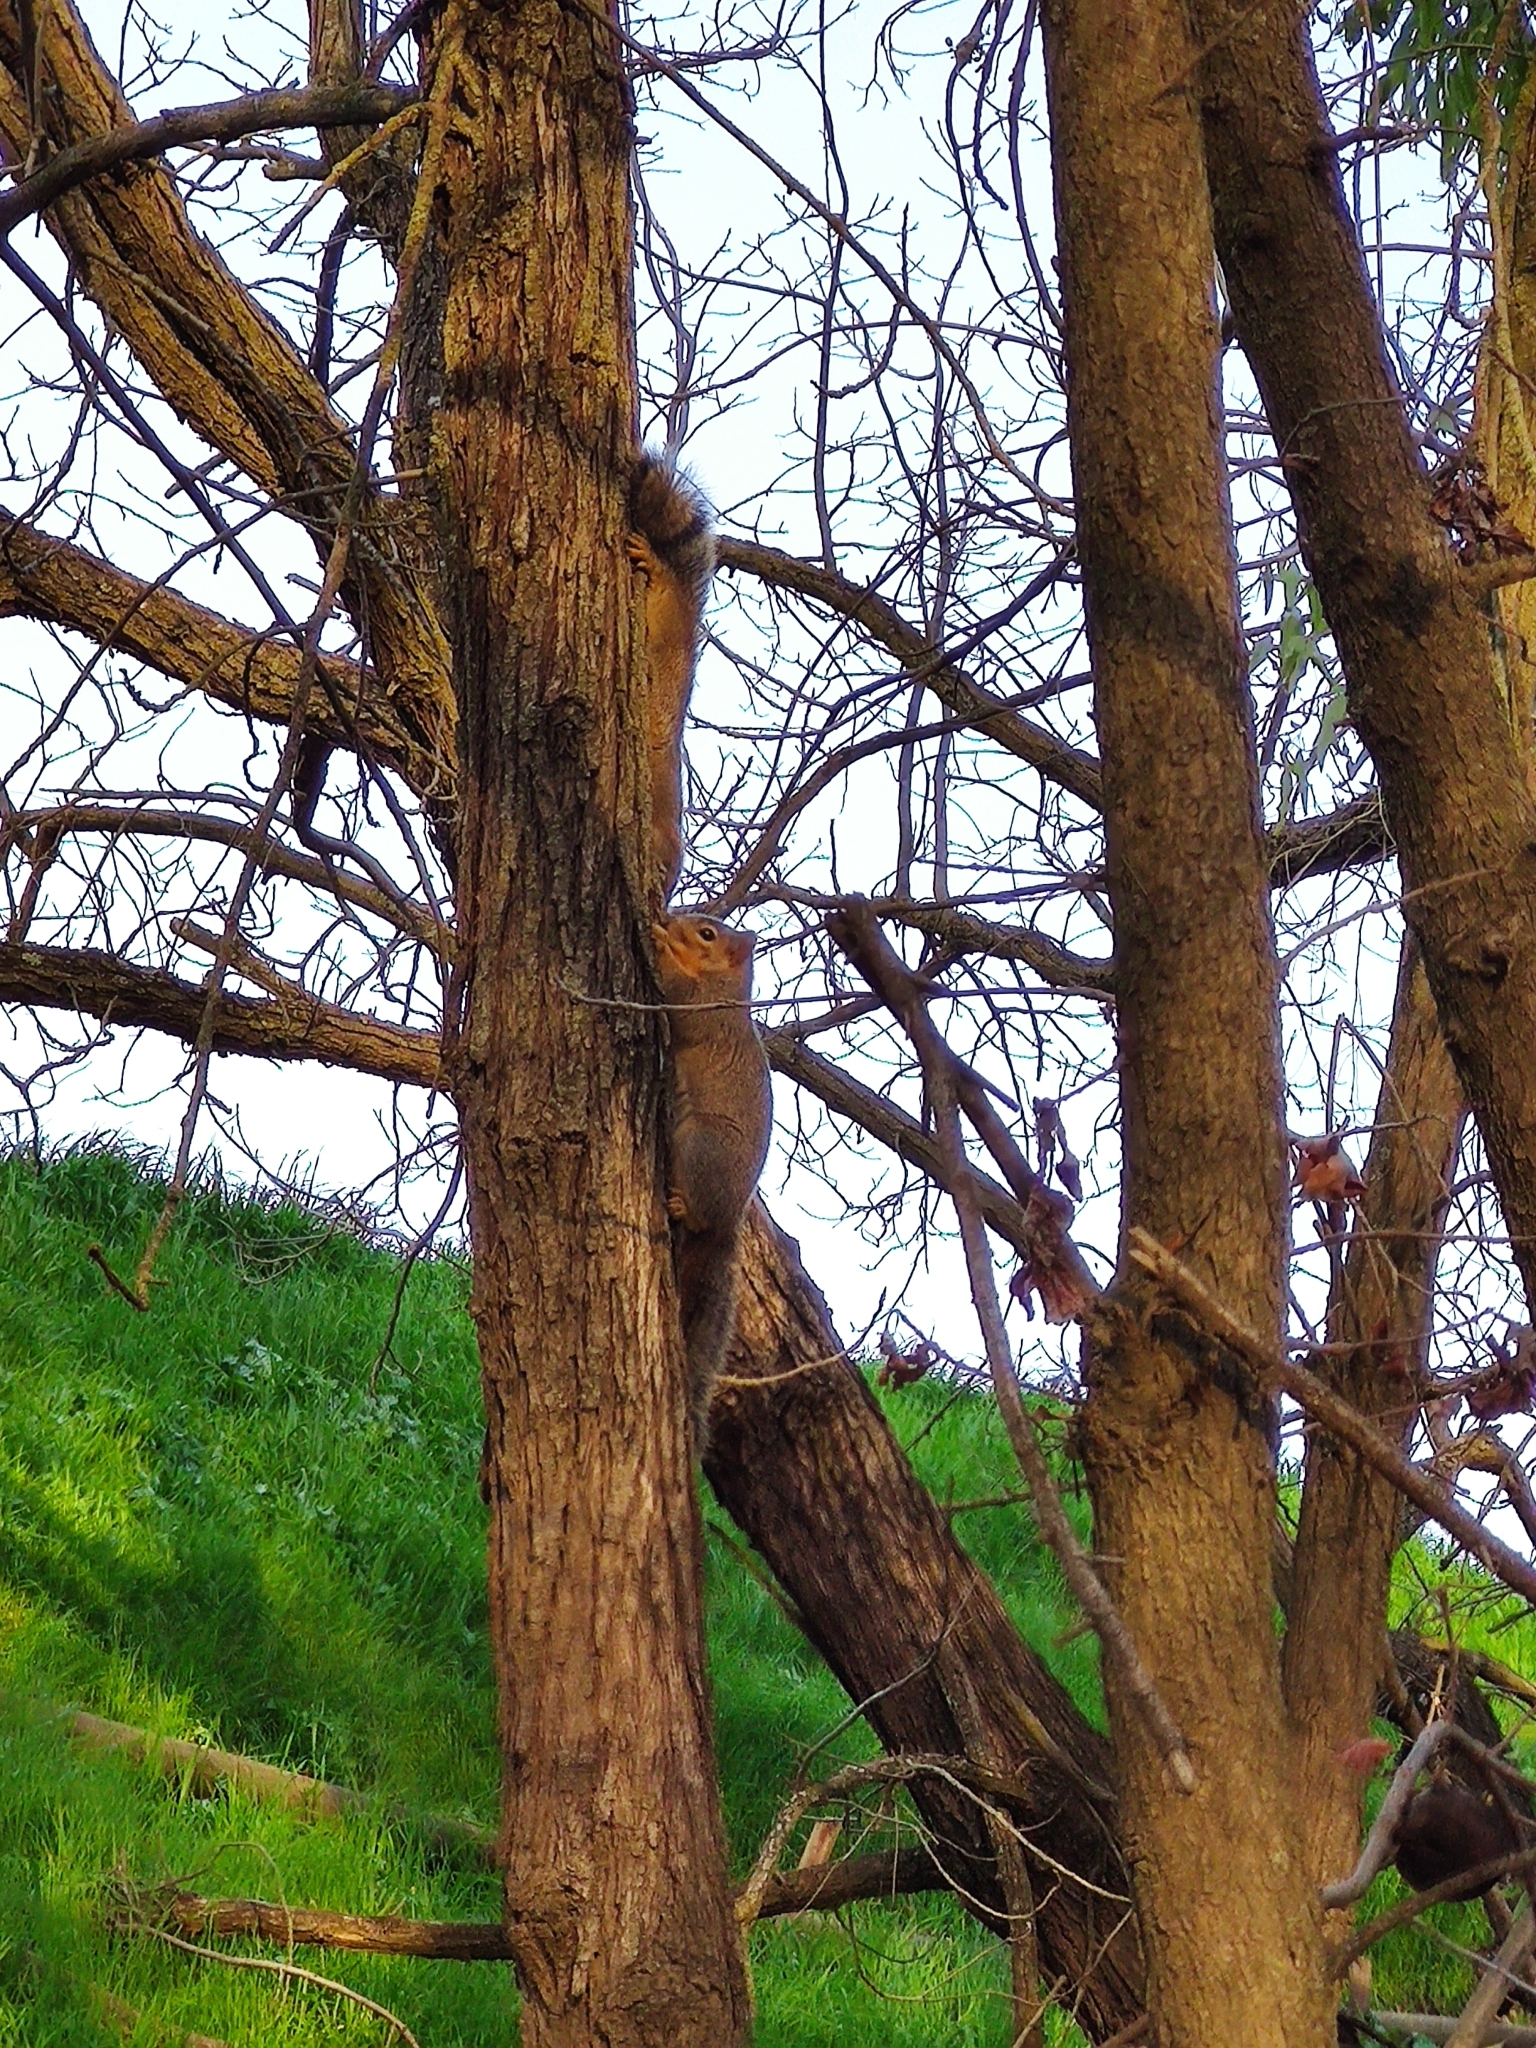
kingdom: Animalia
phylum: Chordata
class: Mammalia
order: Rodentia
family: Sciuridae
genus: Sciurus
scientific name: Sciurus niger
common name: Fox squirrel
